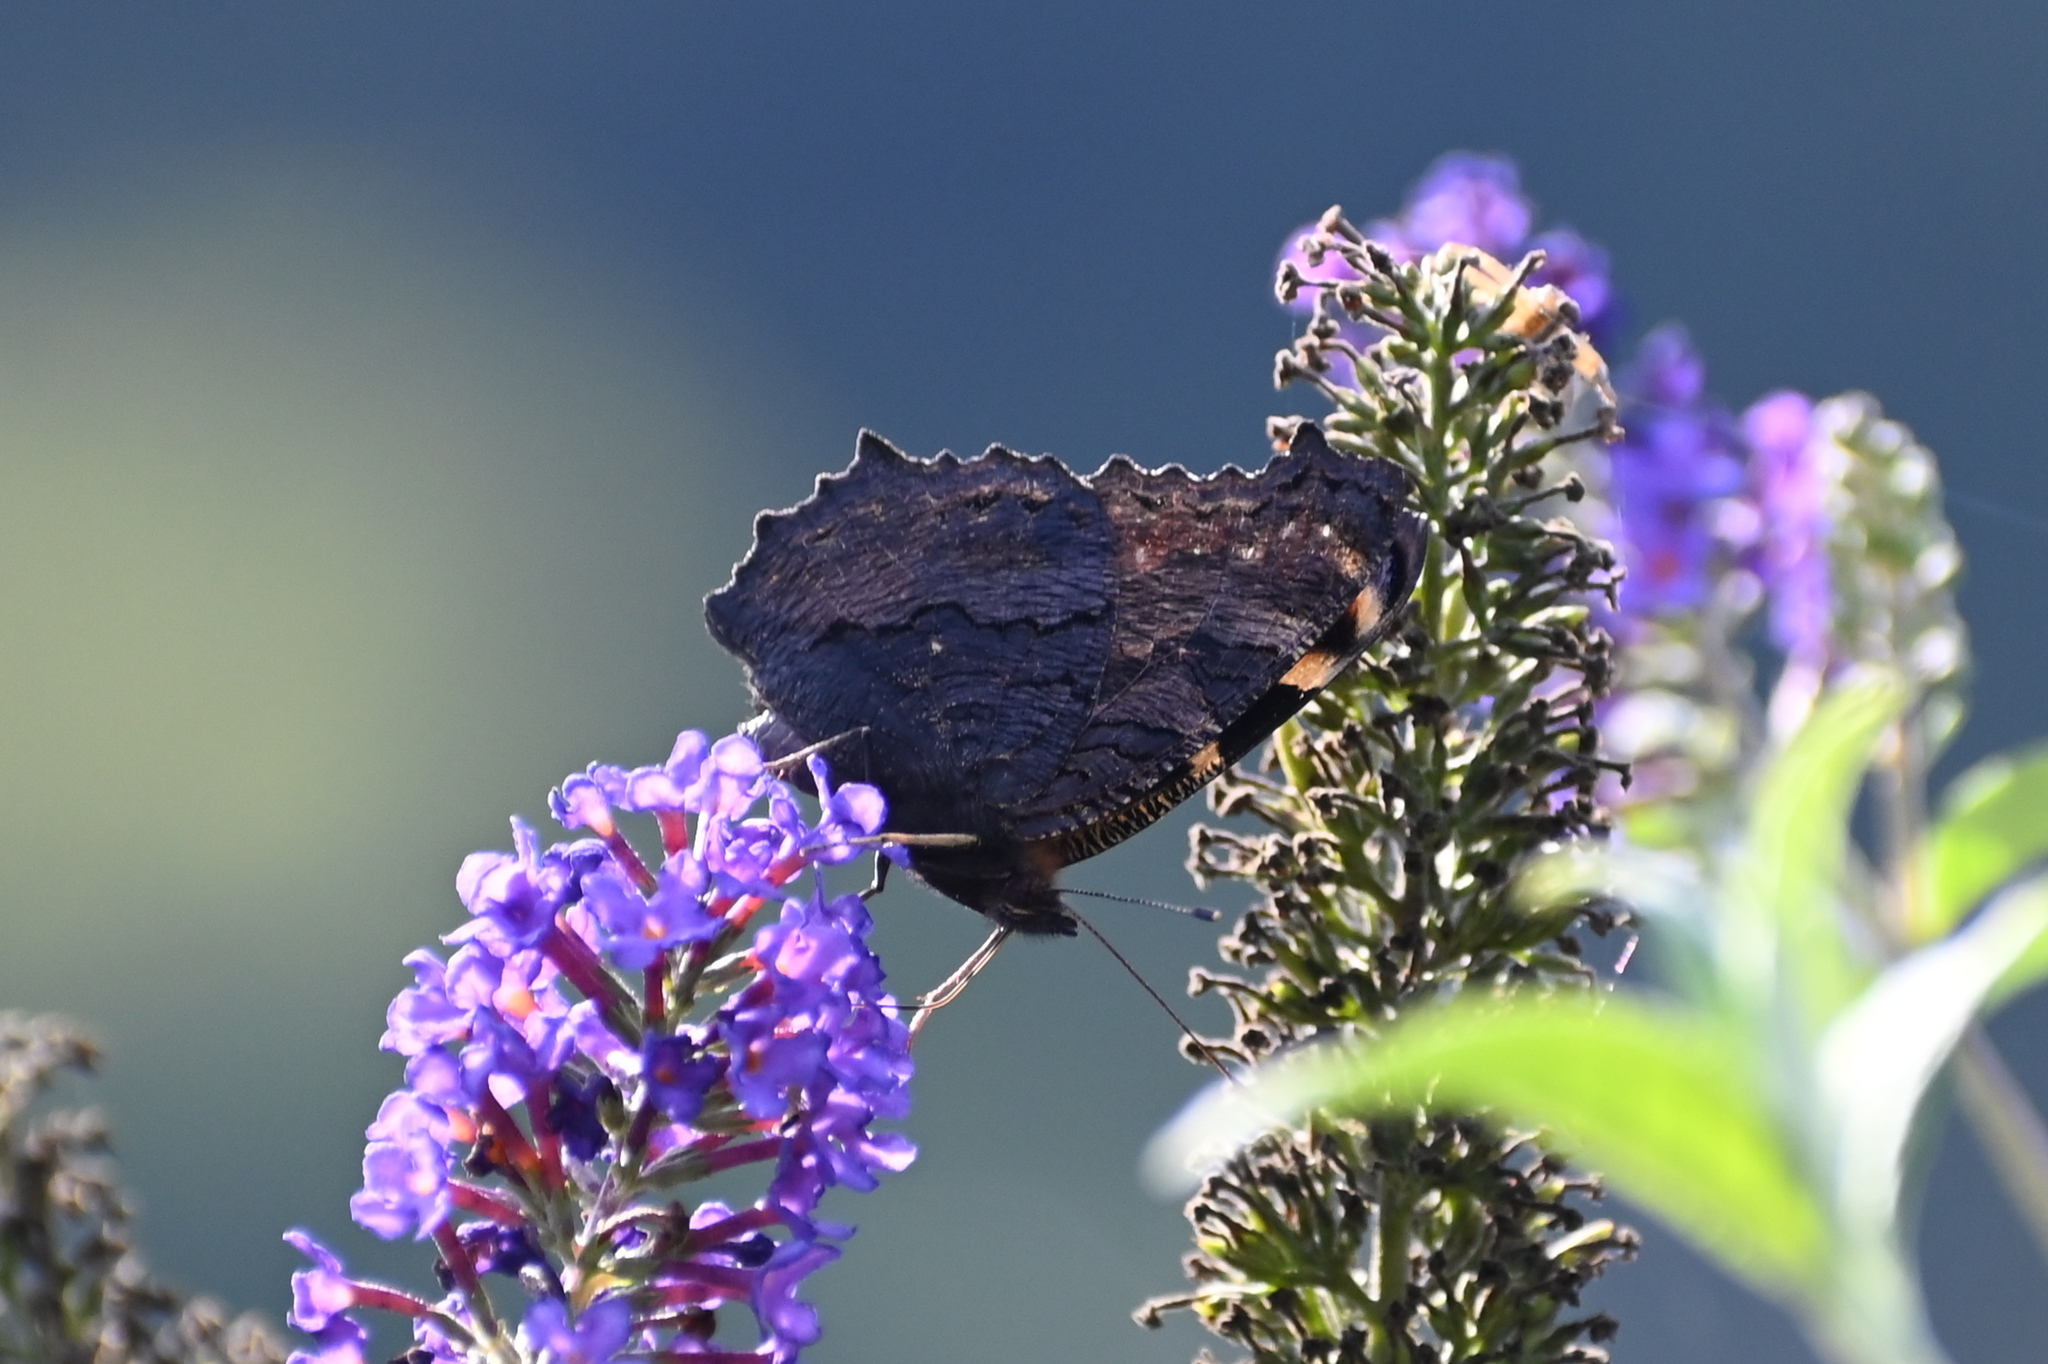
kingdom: Animalia
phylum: Arthropoda
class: Insecta
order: Lepidoptera
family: Nymphalidae
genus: Aglais
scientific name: Aglais io
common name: Peacock
